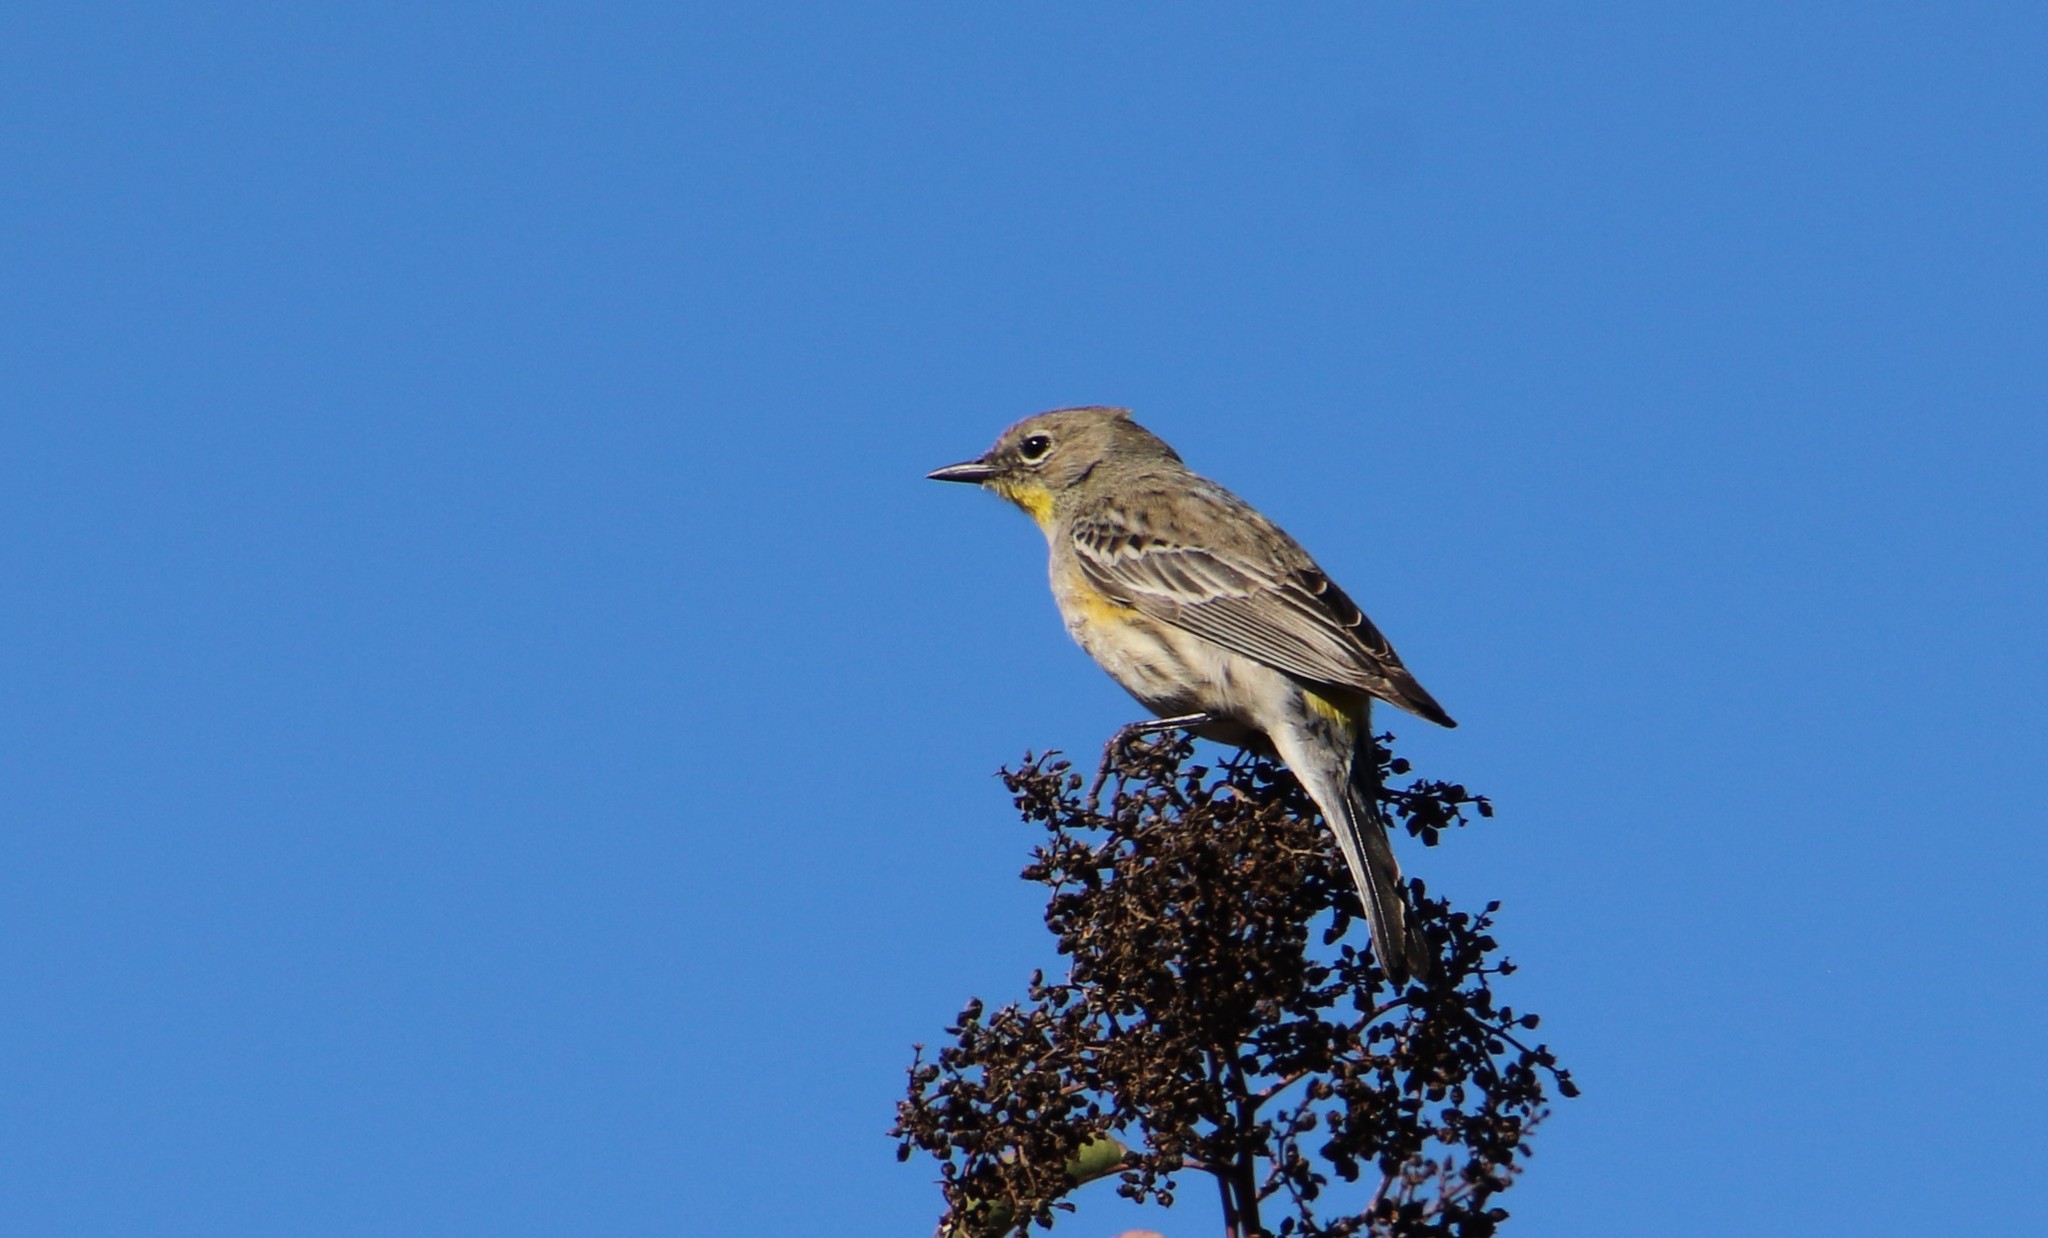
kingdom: Animalia
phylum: Chordata
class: Aves
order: Passeriformes
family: Parulidae
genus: Setophaga
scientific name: Setophaga auduboni
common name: Audubon's warbler
